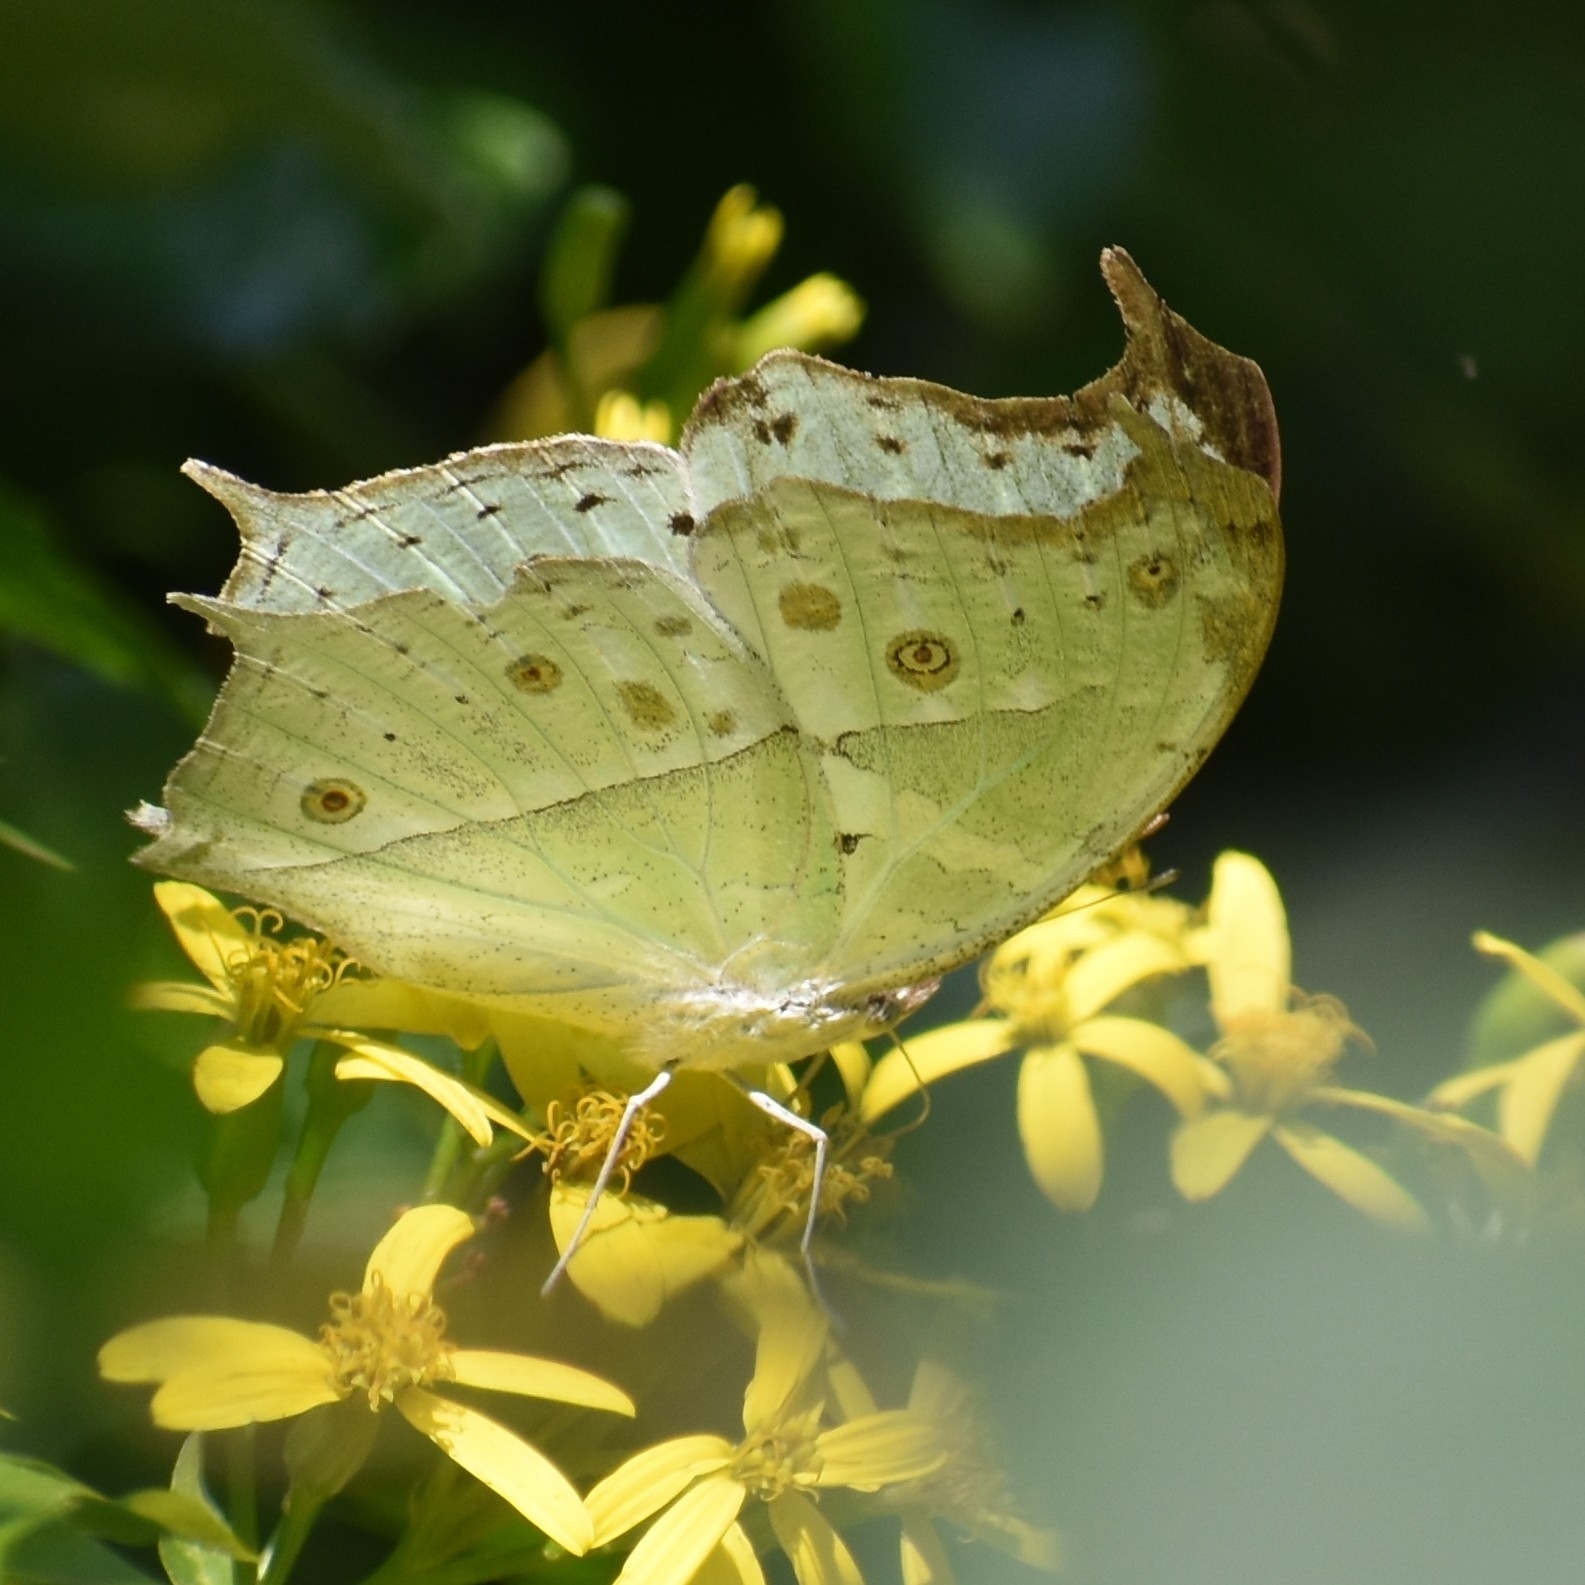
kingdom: Animalia
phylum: Arthropoda
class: Insecta
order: Lepidoptera
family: Nymphalidae
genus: Salamis
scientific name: Salamis Protogoniomorpha parhassus
